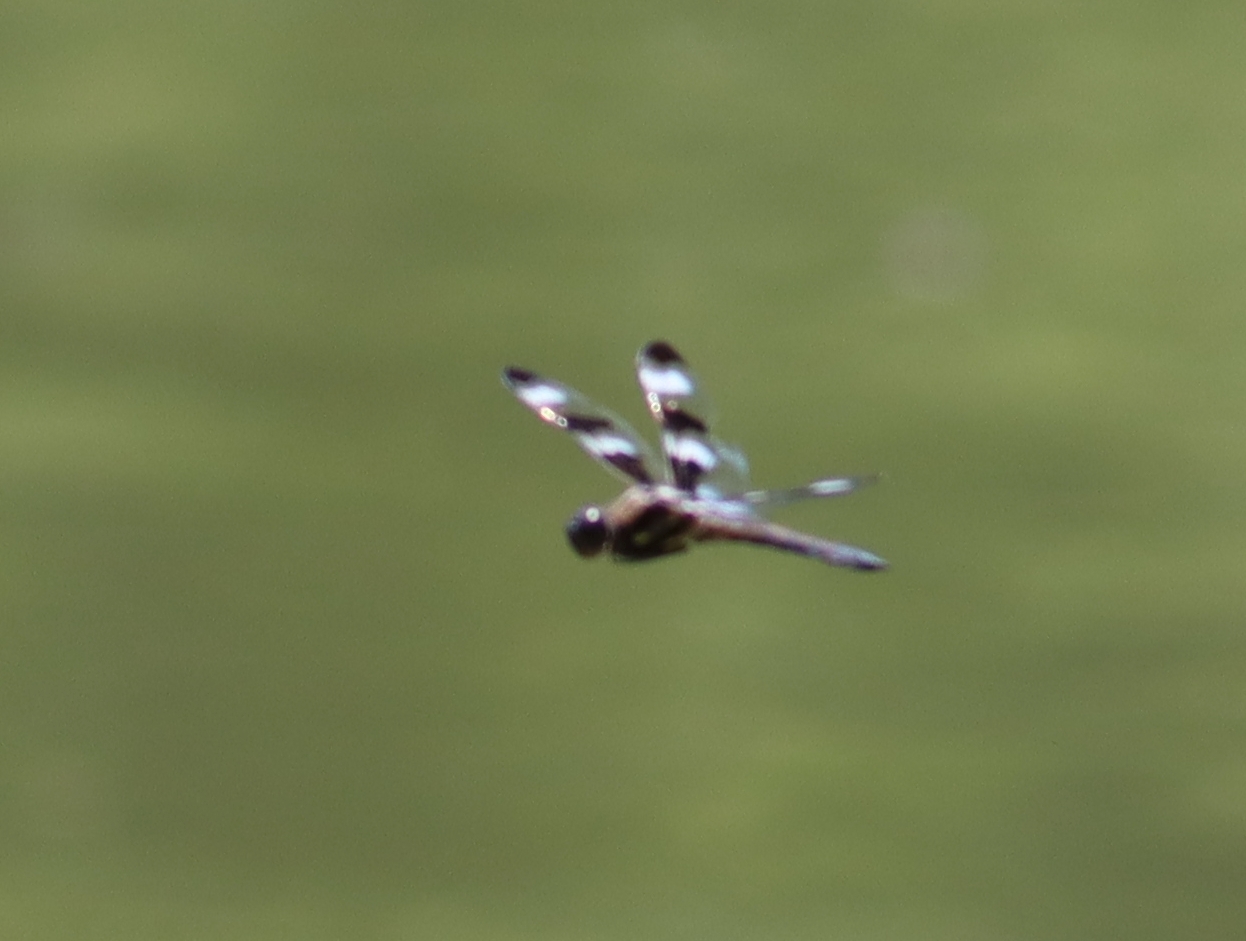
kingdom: Animalia
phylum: Arthropoda
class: Insecta
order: Odonata
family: Libellulidae
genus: Libellula
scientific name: Libellula pulchella
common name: Twelve-spotted skimmer
